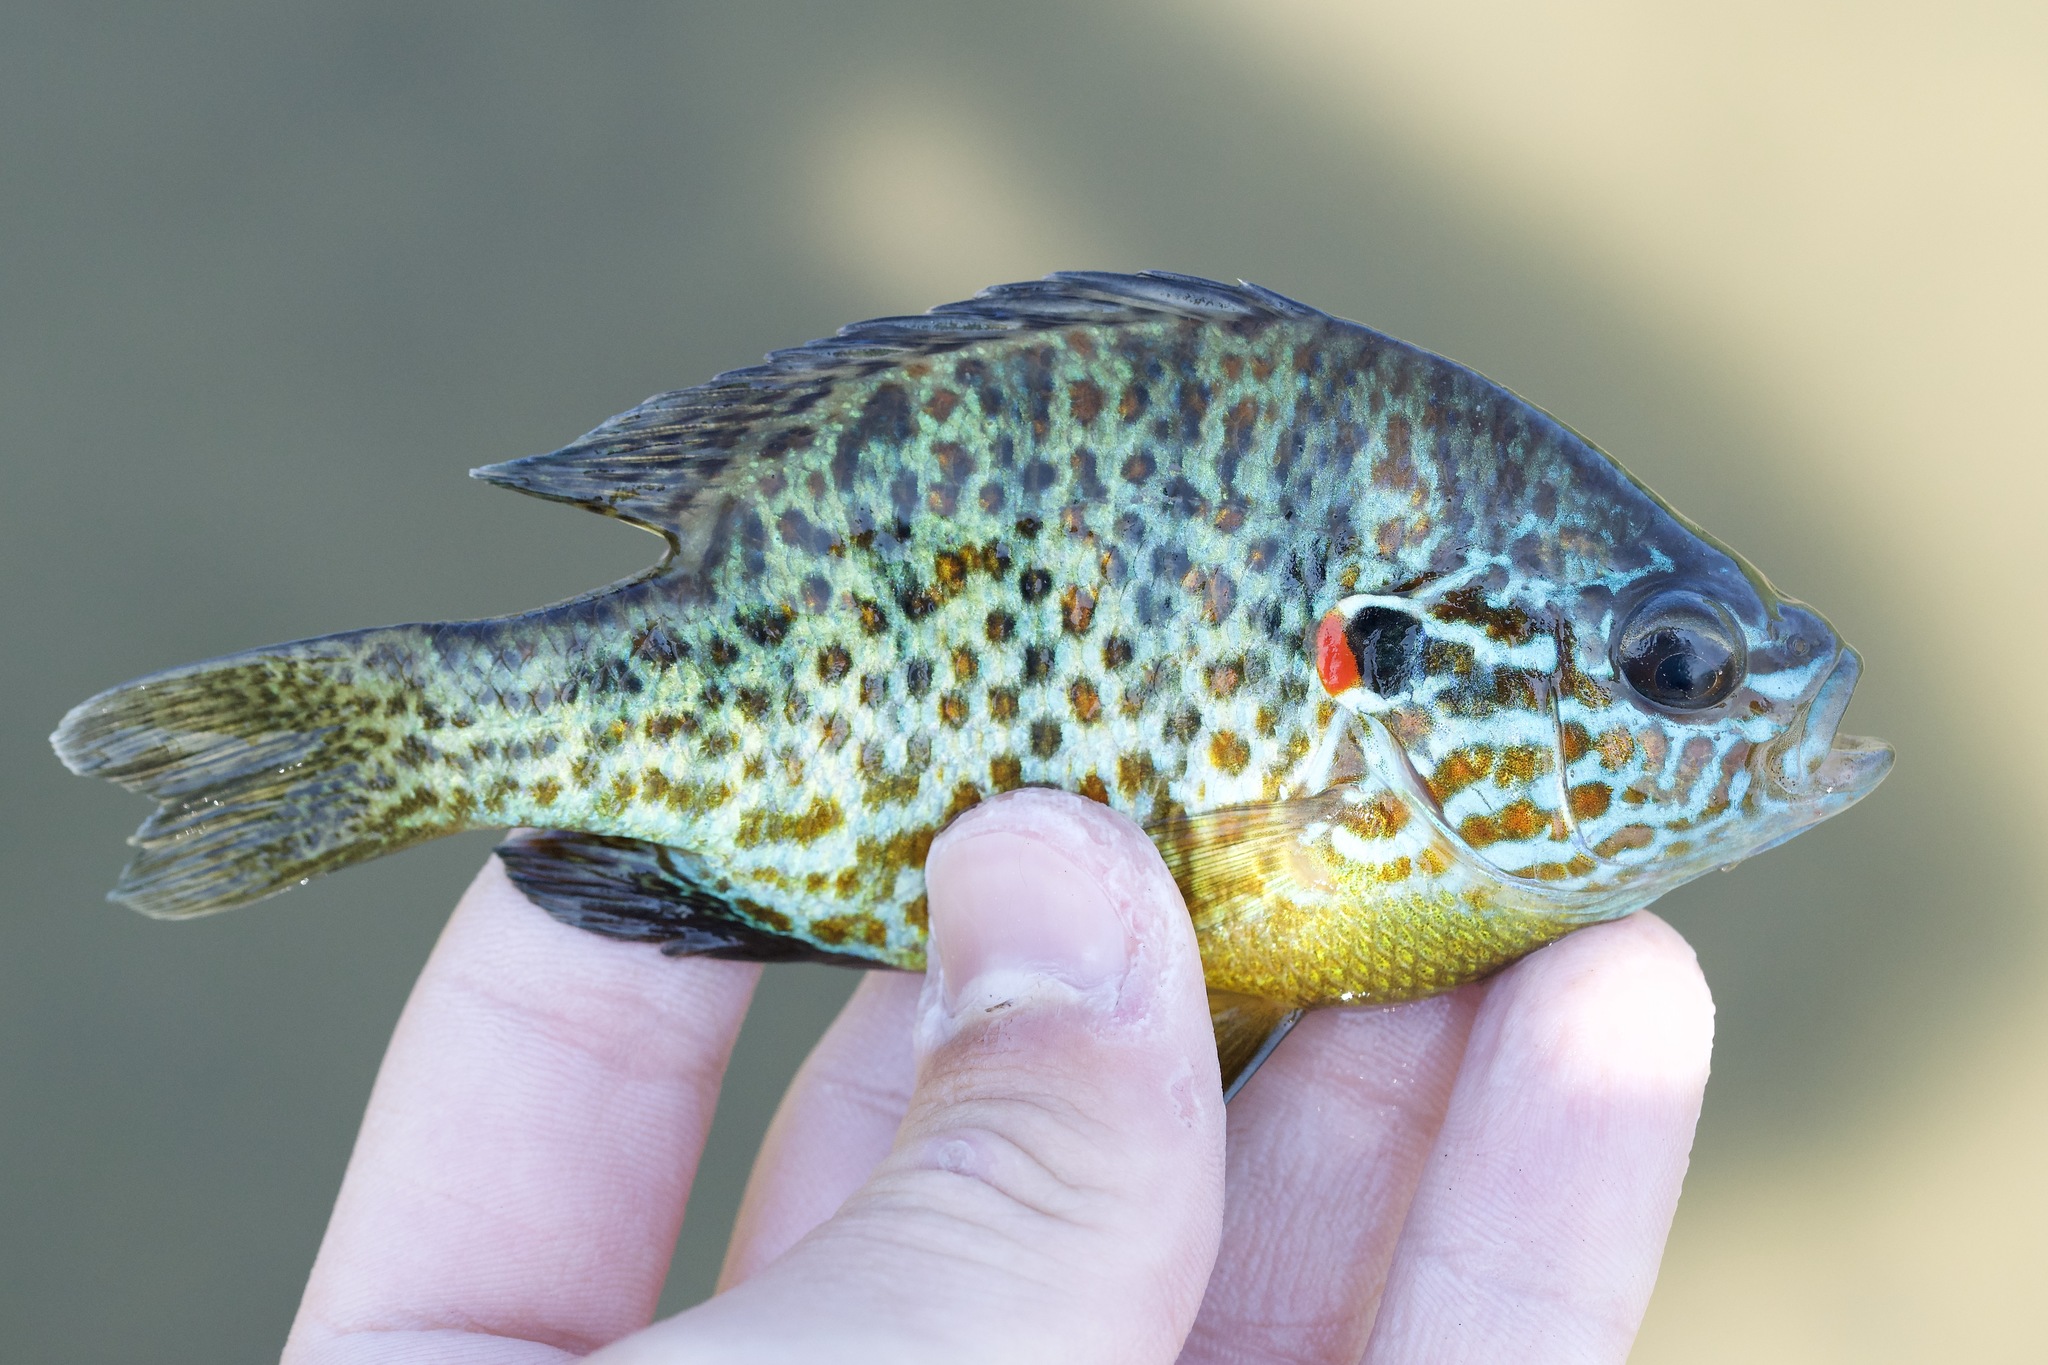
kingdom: Animalia
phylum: Chordata
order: Perciformes
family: Centrarchidae
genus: Lepomis
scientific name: Lepomis gibbosus
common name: Pumpkinseed
